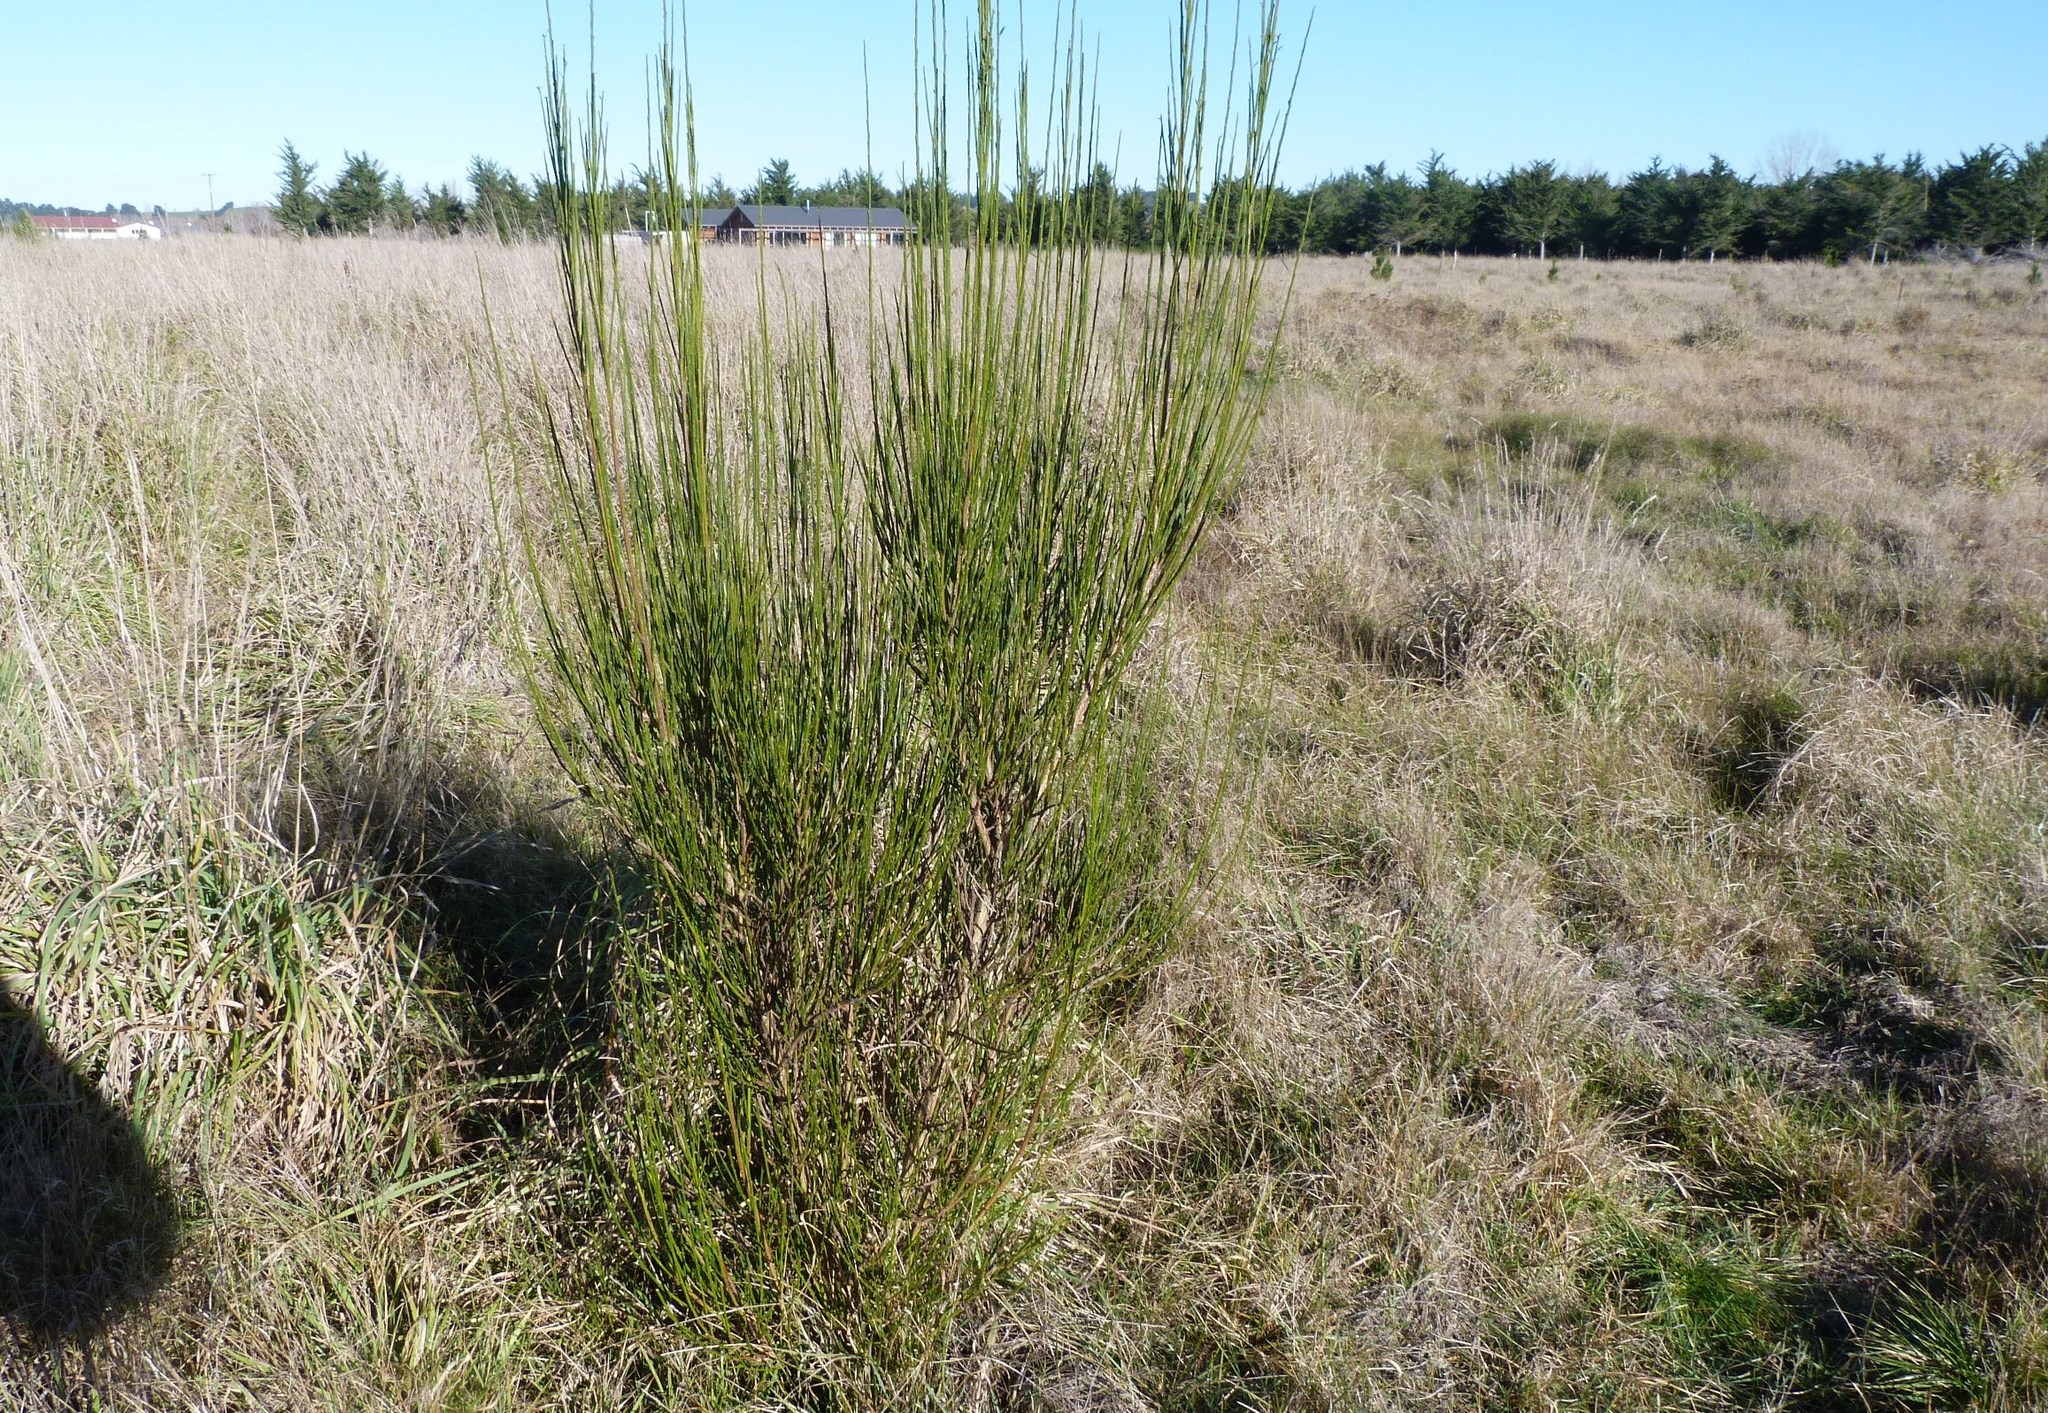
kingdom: Plantae
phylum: Tracheophyta
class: Magnoliopsida
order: Fabales
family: Fabaceae
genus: Cytisus
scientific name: Cytisus scoparius
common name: Scotch broom
